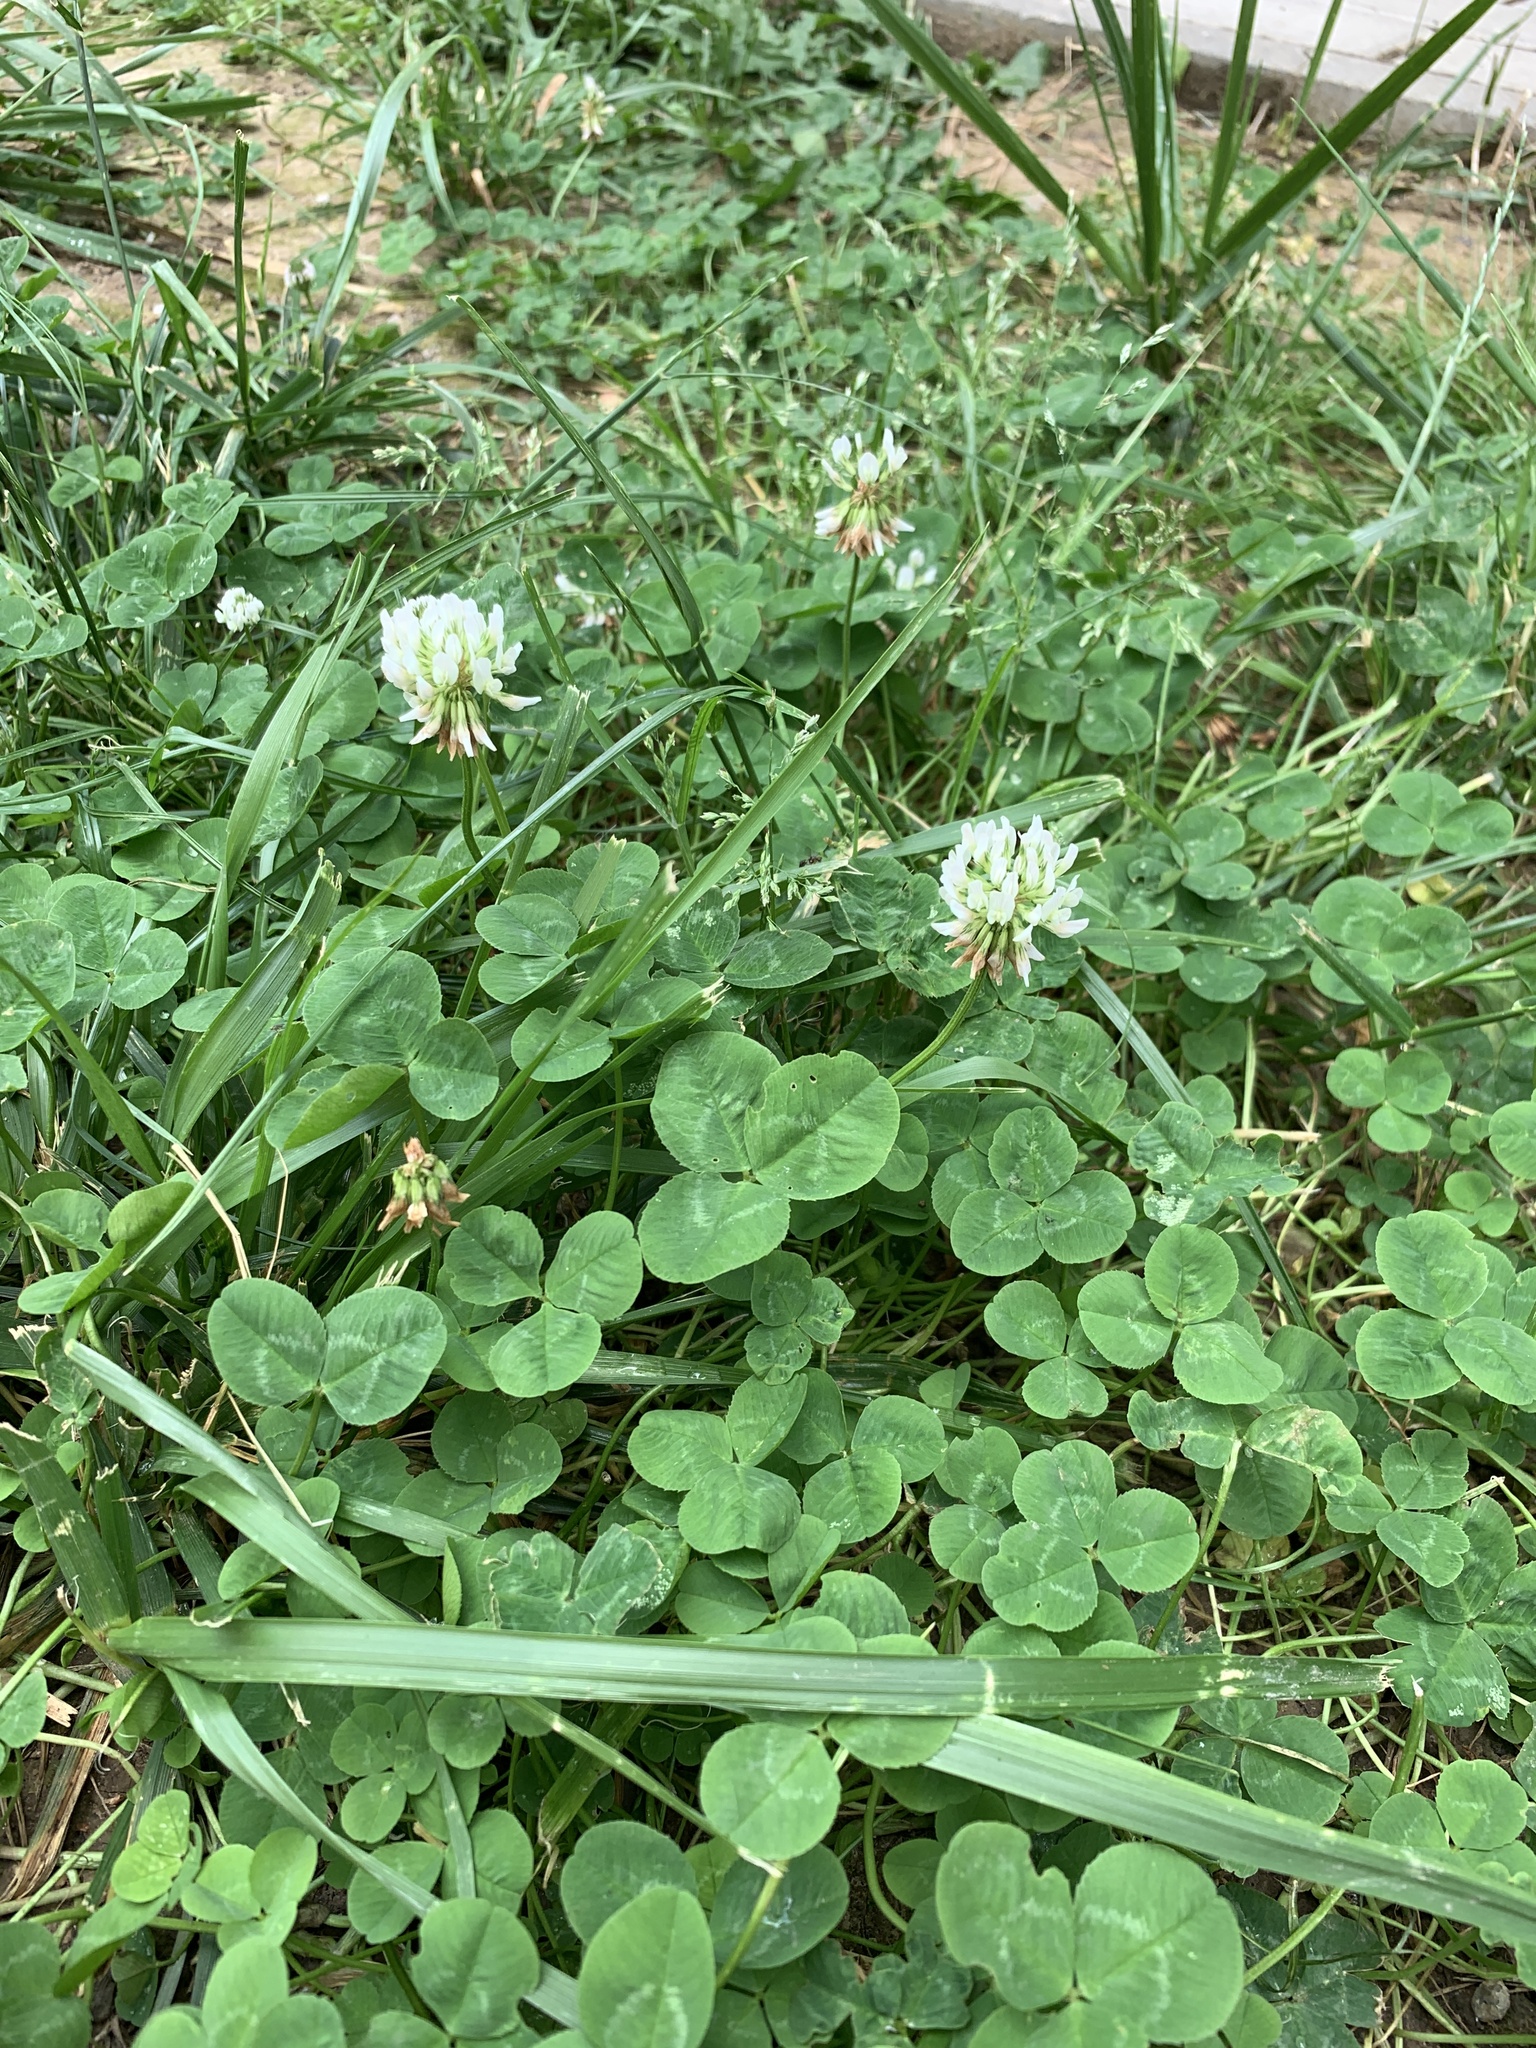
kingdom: Plantae
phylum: Tracheophyta
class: Magnoliopsida
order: Fabales
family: Fabaceae
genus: Trifolium
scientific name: Trifolium repens
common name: White clover
